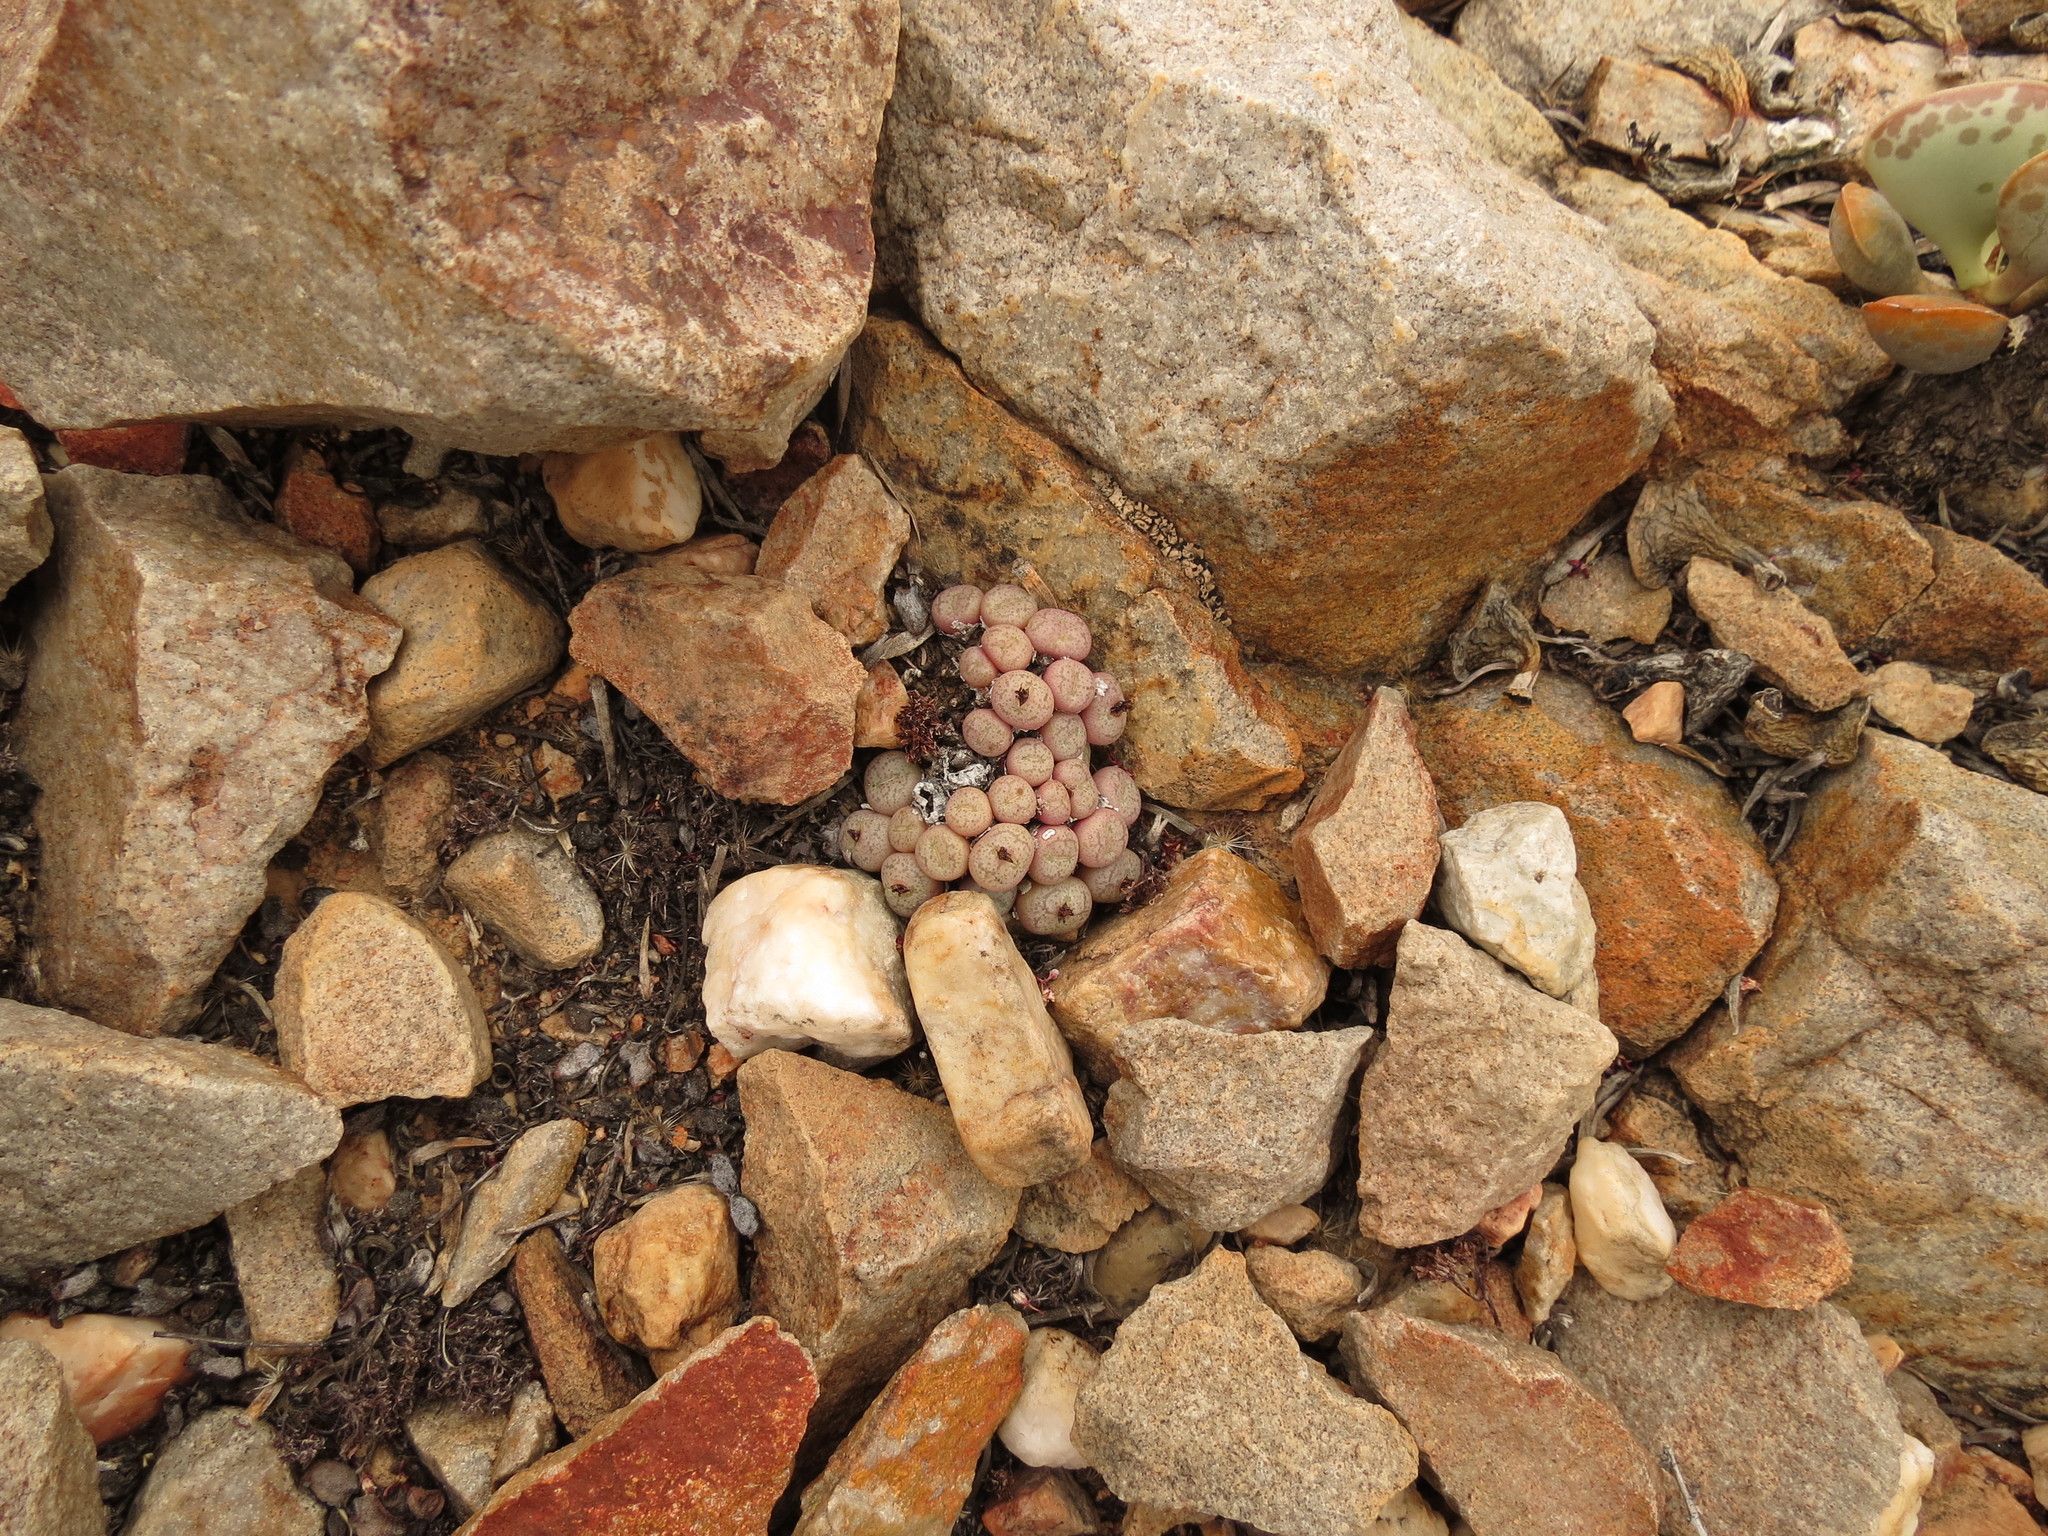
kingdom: Plantae
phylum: Tracheophyta
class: Magnoliopsida
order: Caryophyllales
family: Aizoaceae
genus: Conophytum
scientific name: Conophytum truncatum
